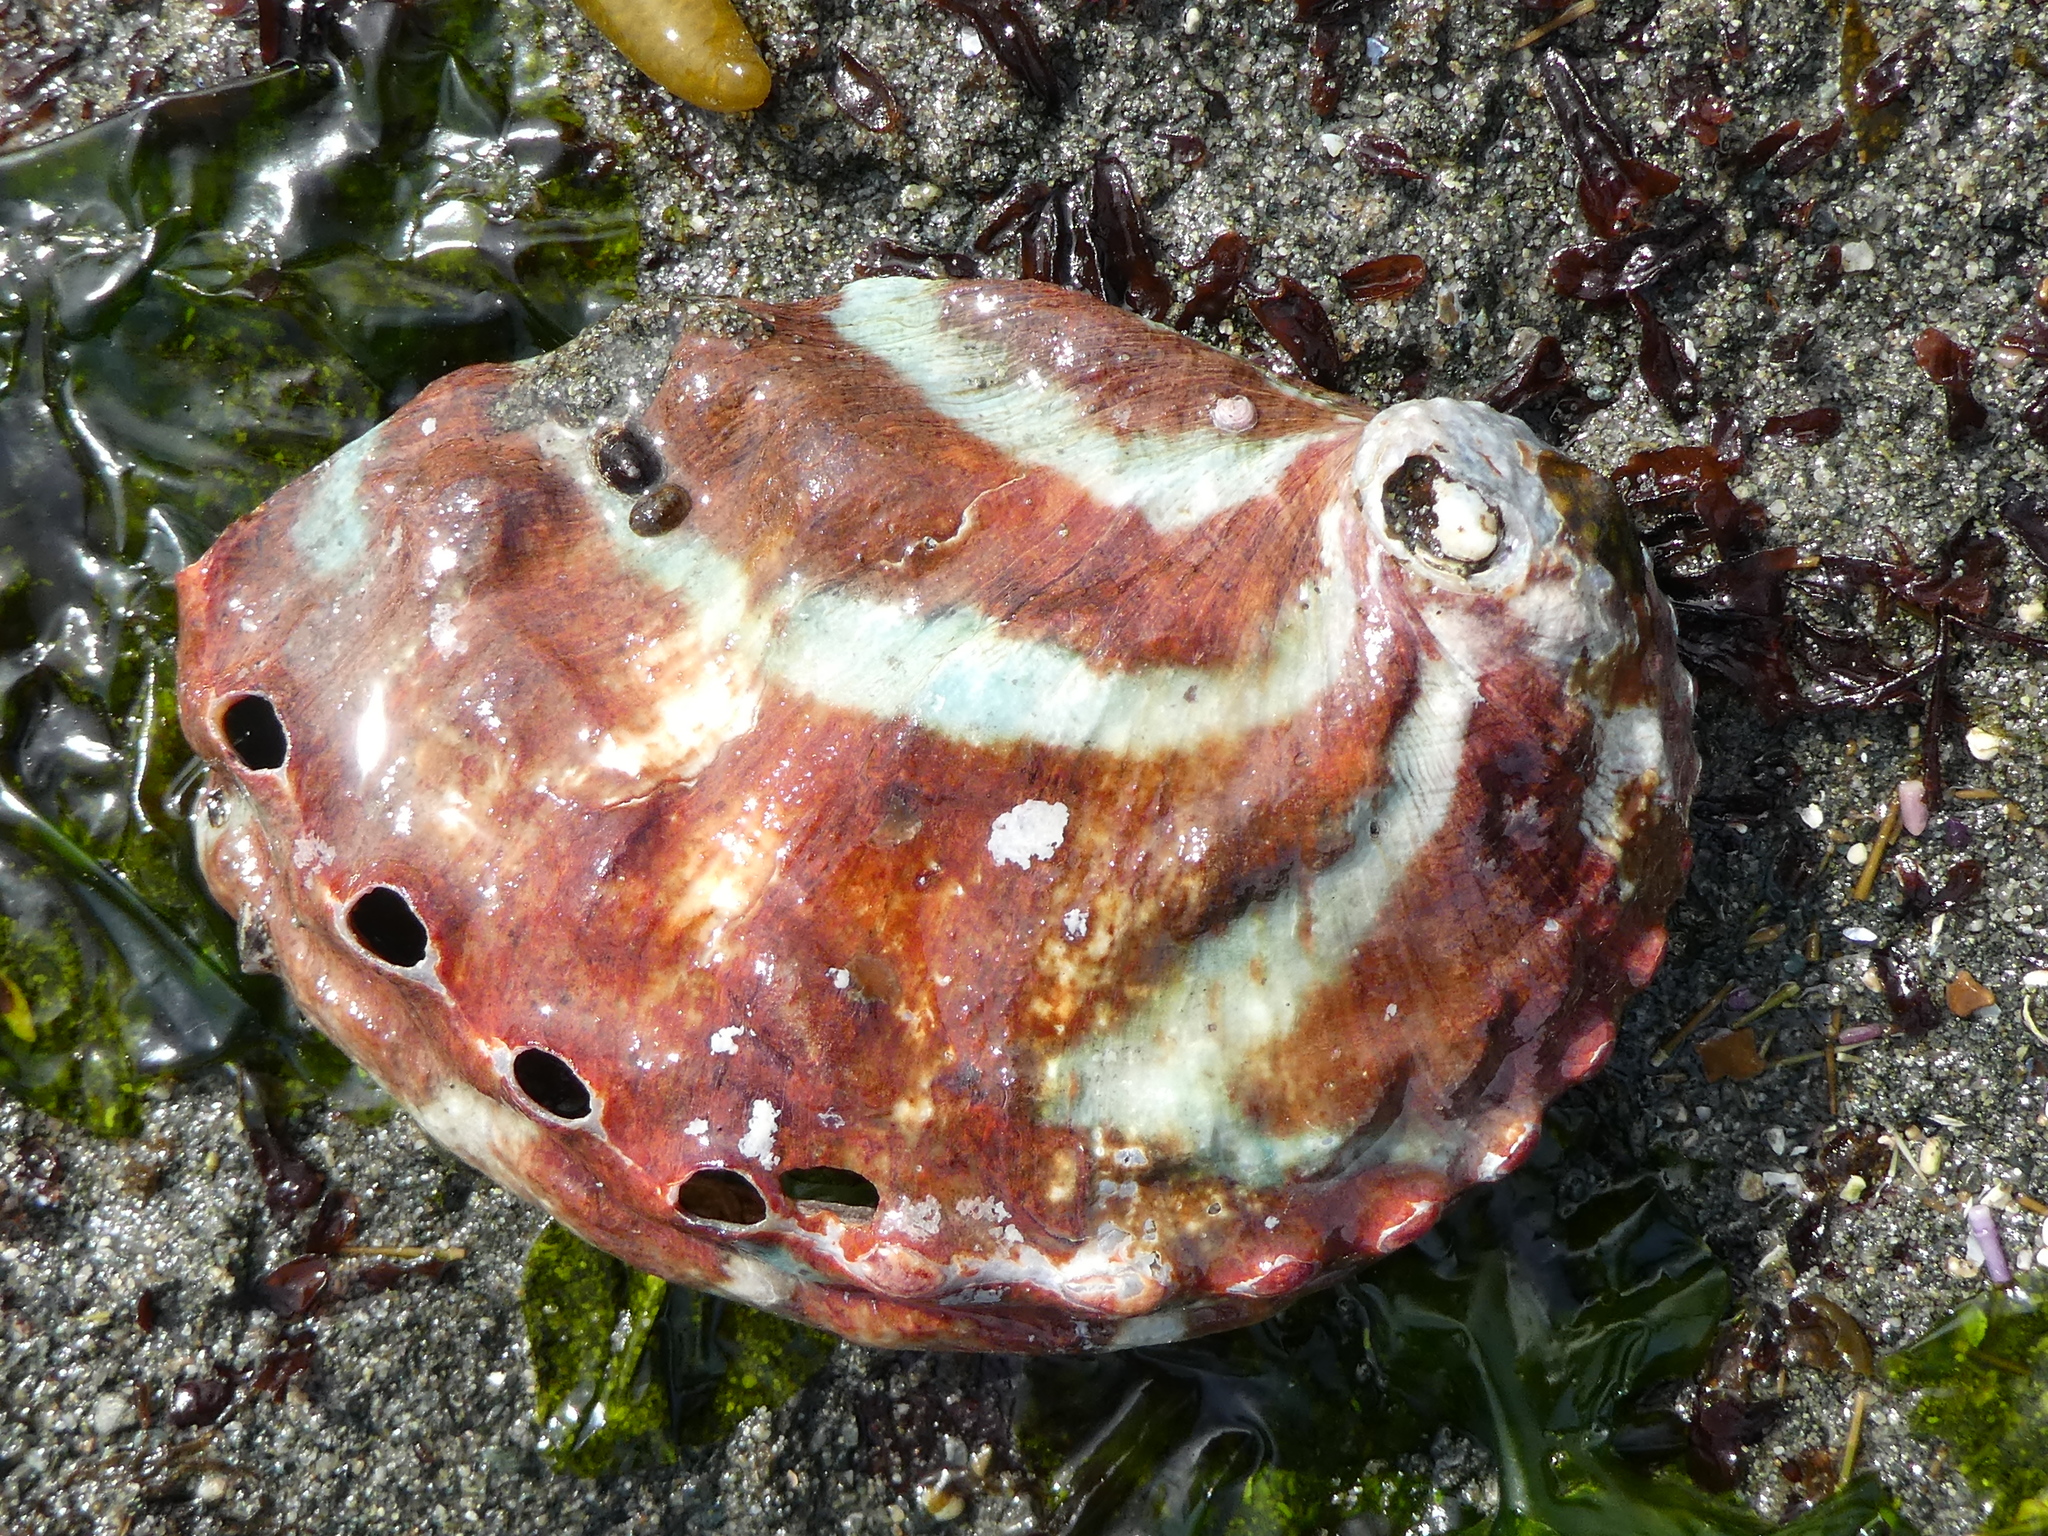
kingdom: Animalia
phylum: Mollusca
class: Gastropoda
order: Lepetellida
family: Haliotidae
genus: Haliotis
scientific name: Haliotis kamtschatkana
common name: Pinto abalone
